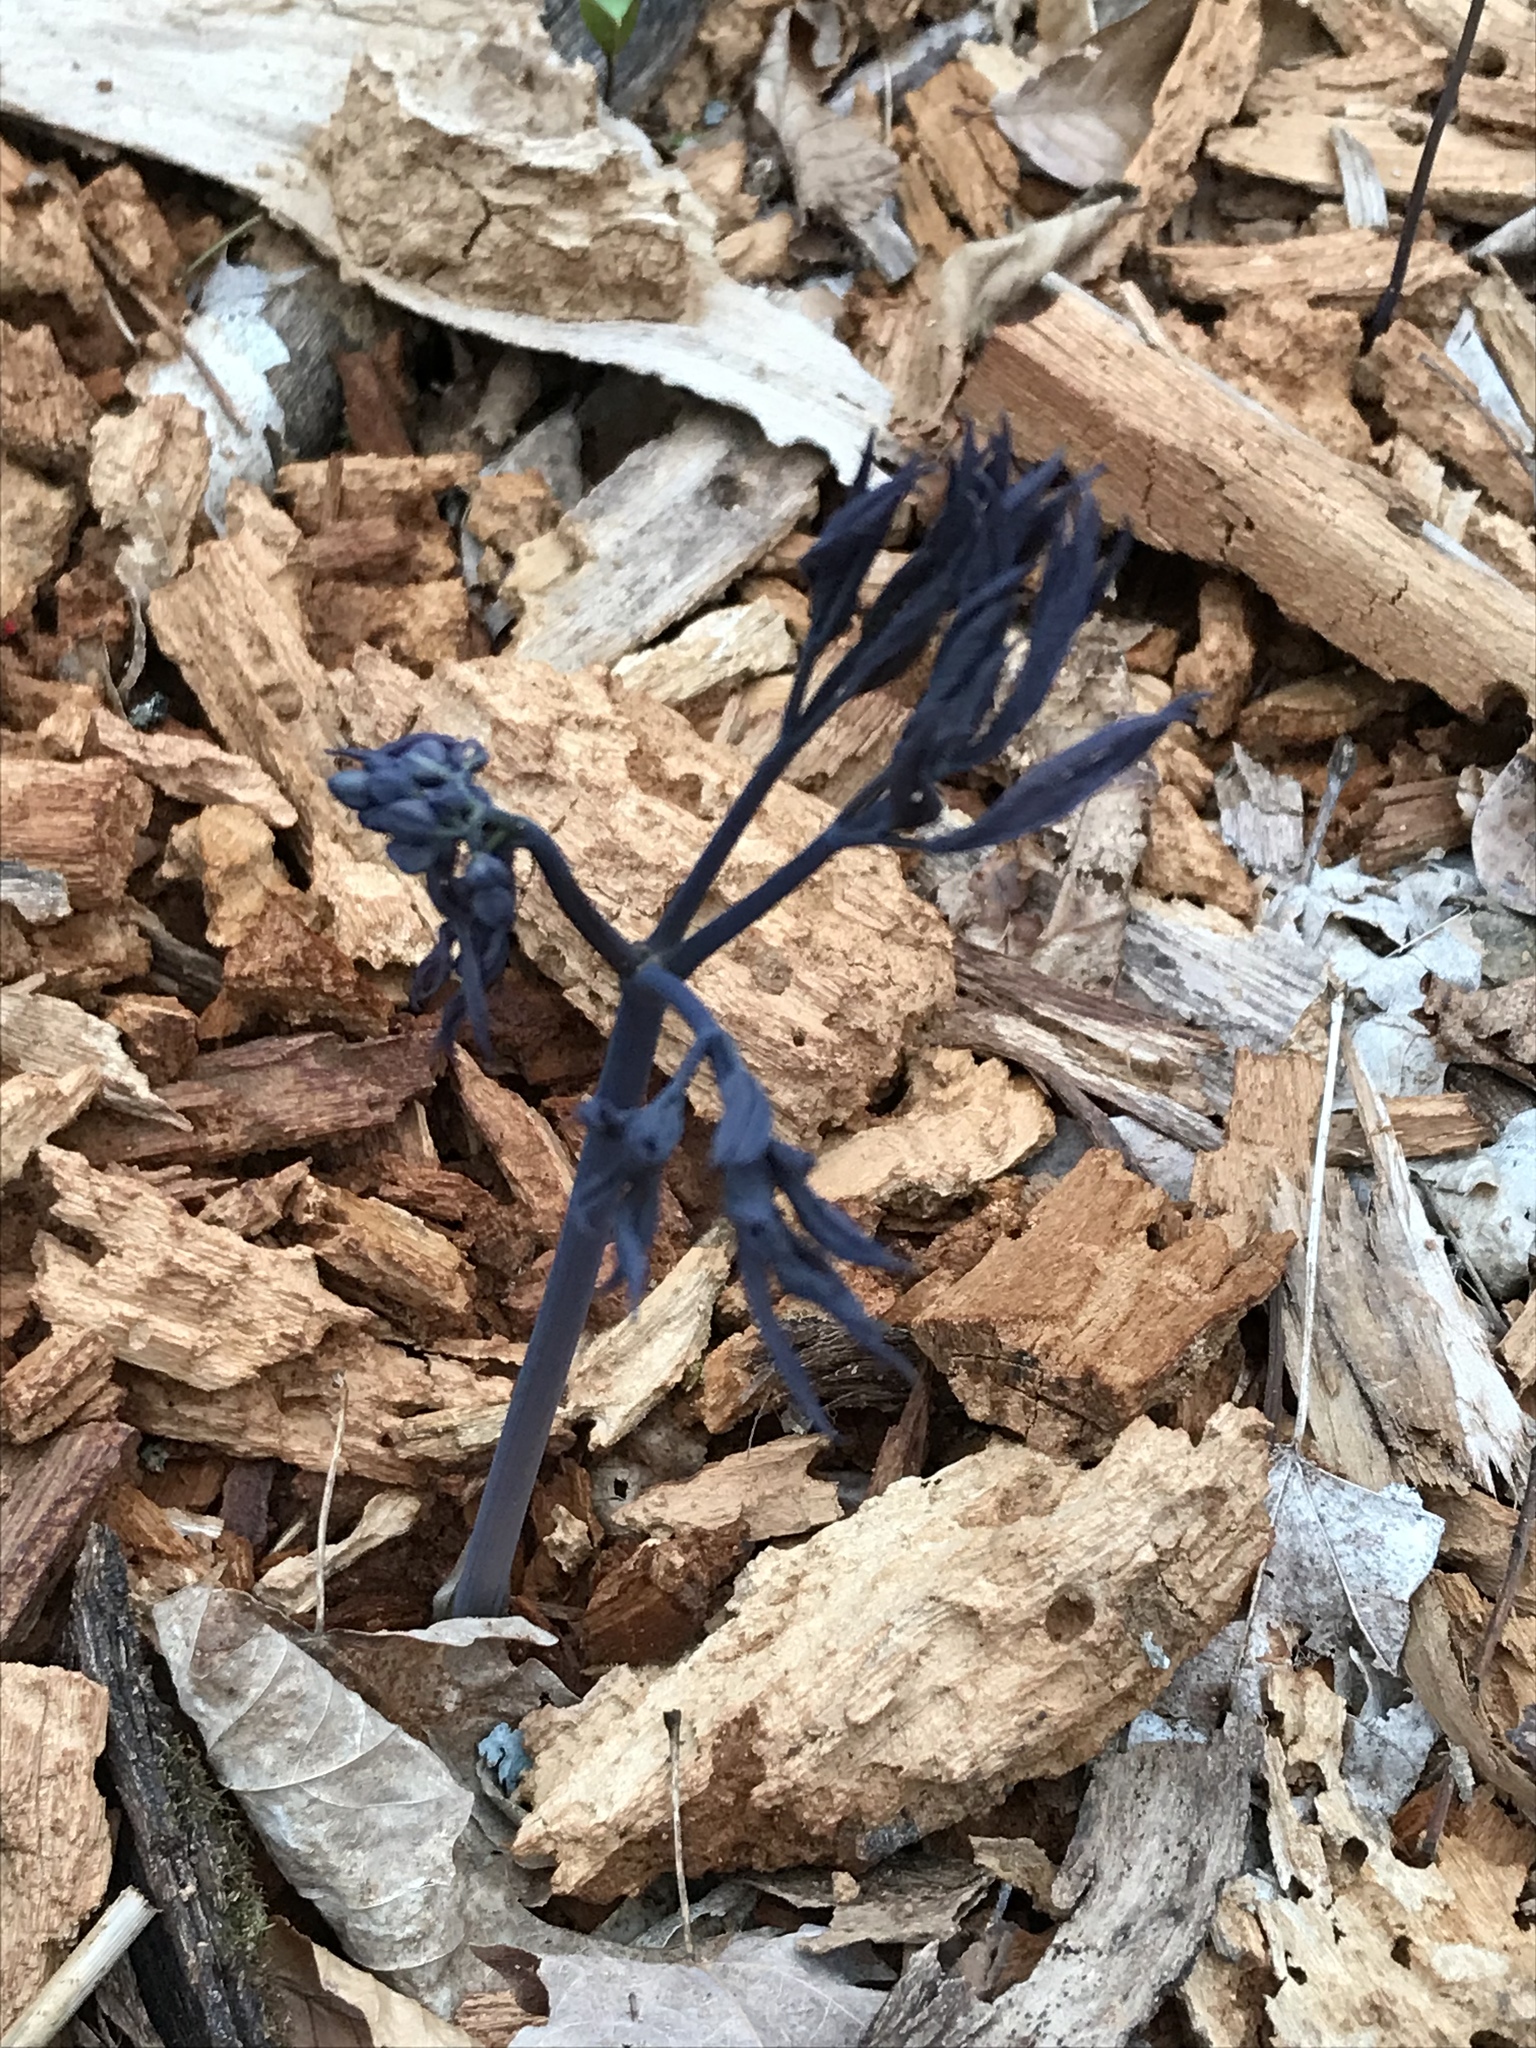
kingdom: Plantae
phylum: Tracheophyta
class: Magnoliopsida
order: Ranunculales
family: Berberidaceae
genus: Caulophyllum
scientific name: Caulophyllum giganteum
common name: Blue cohosh
